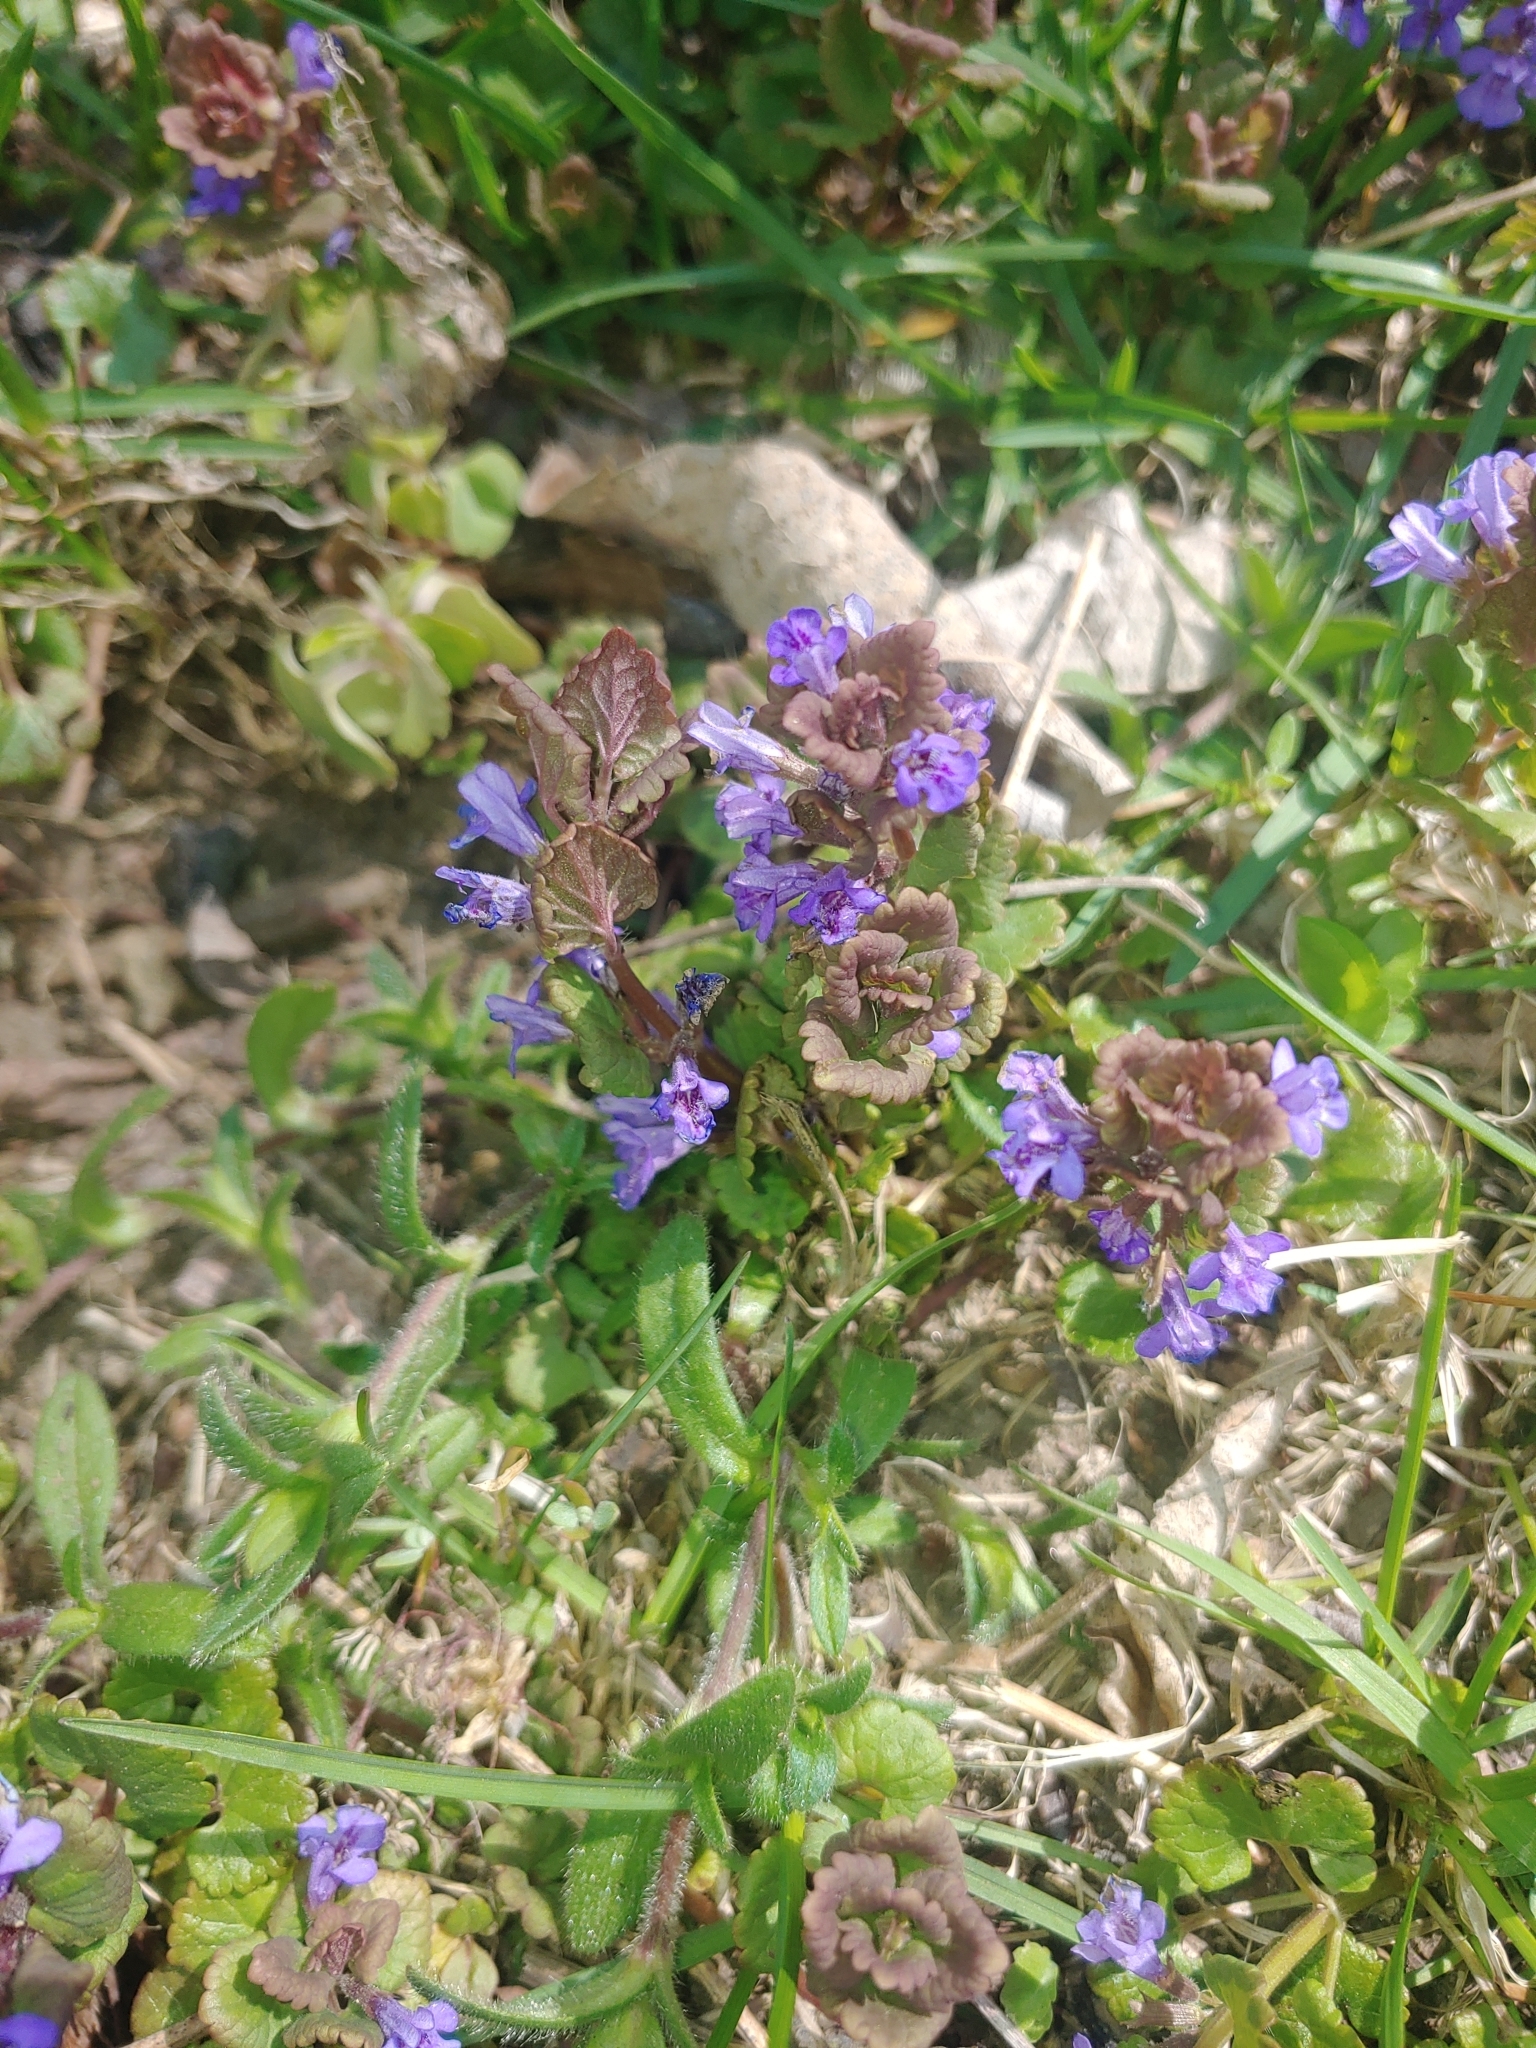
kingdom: Plantae
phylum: Tracheophyta
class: Magnoliopsida
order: Lamiales
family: Lamiaceae
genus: Glechoma
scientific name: Glechoma hederacea
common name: Ground ivy
